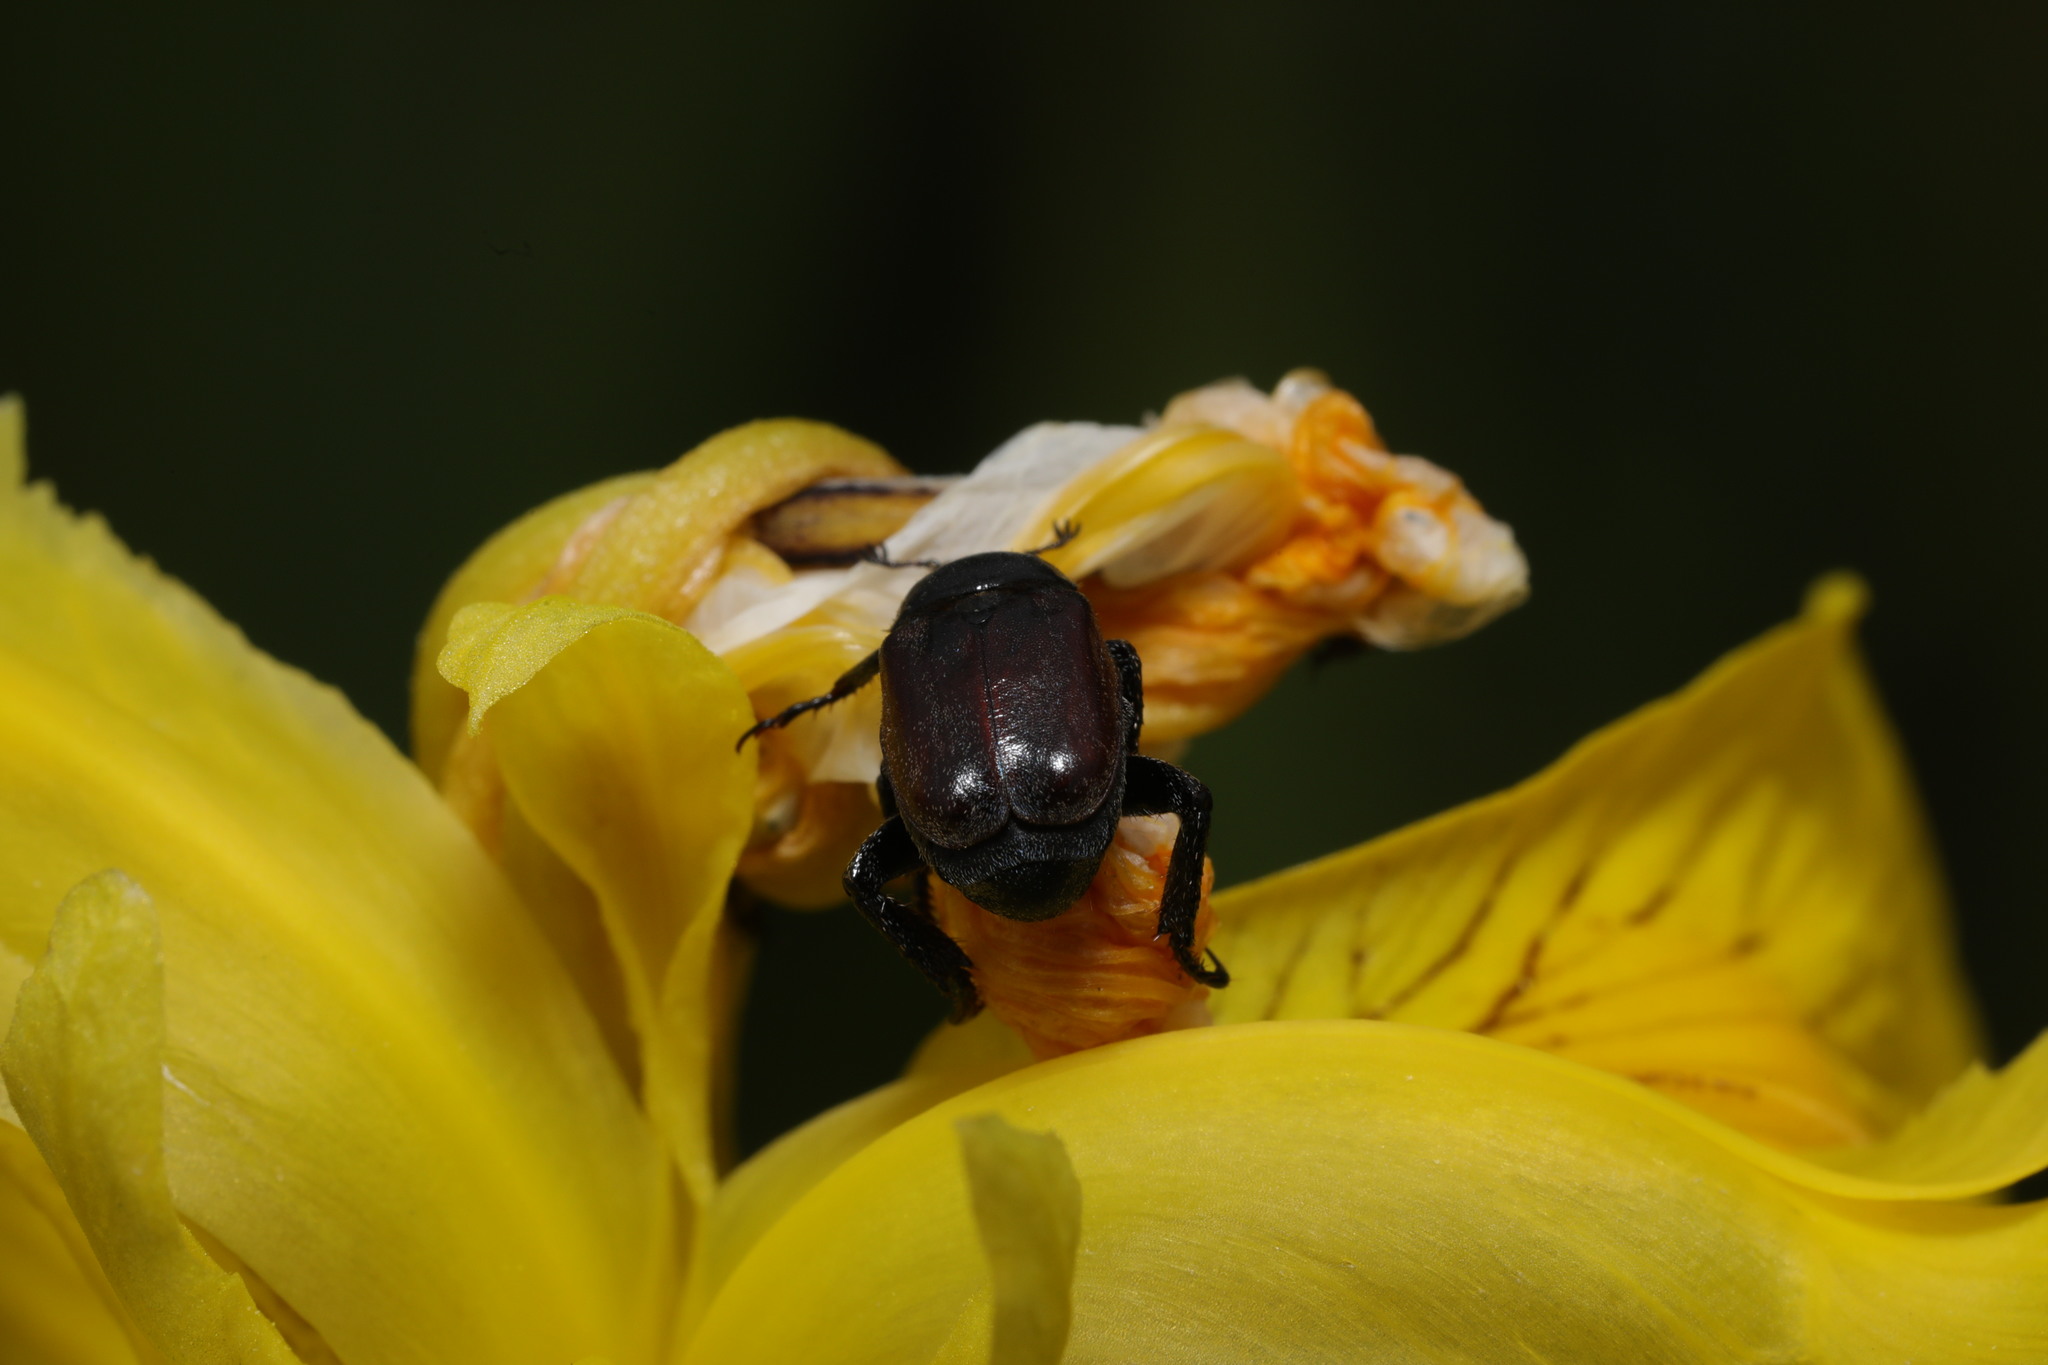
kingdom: Animalia
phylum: Arthropoda
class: Insecta
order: Coleoptera
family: Scarabaeidae
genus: Hoplia
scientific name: Hoplia philanthus
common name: Welsh chafer
